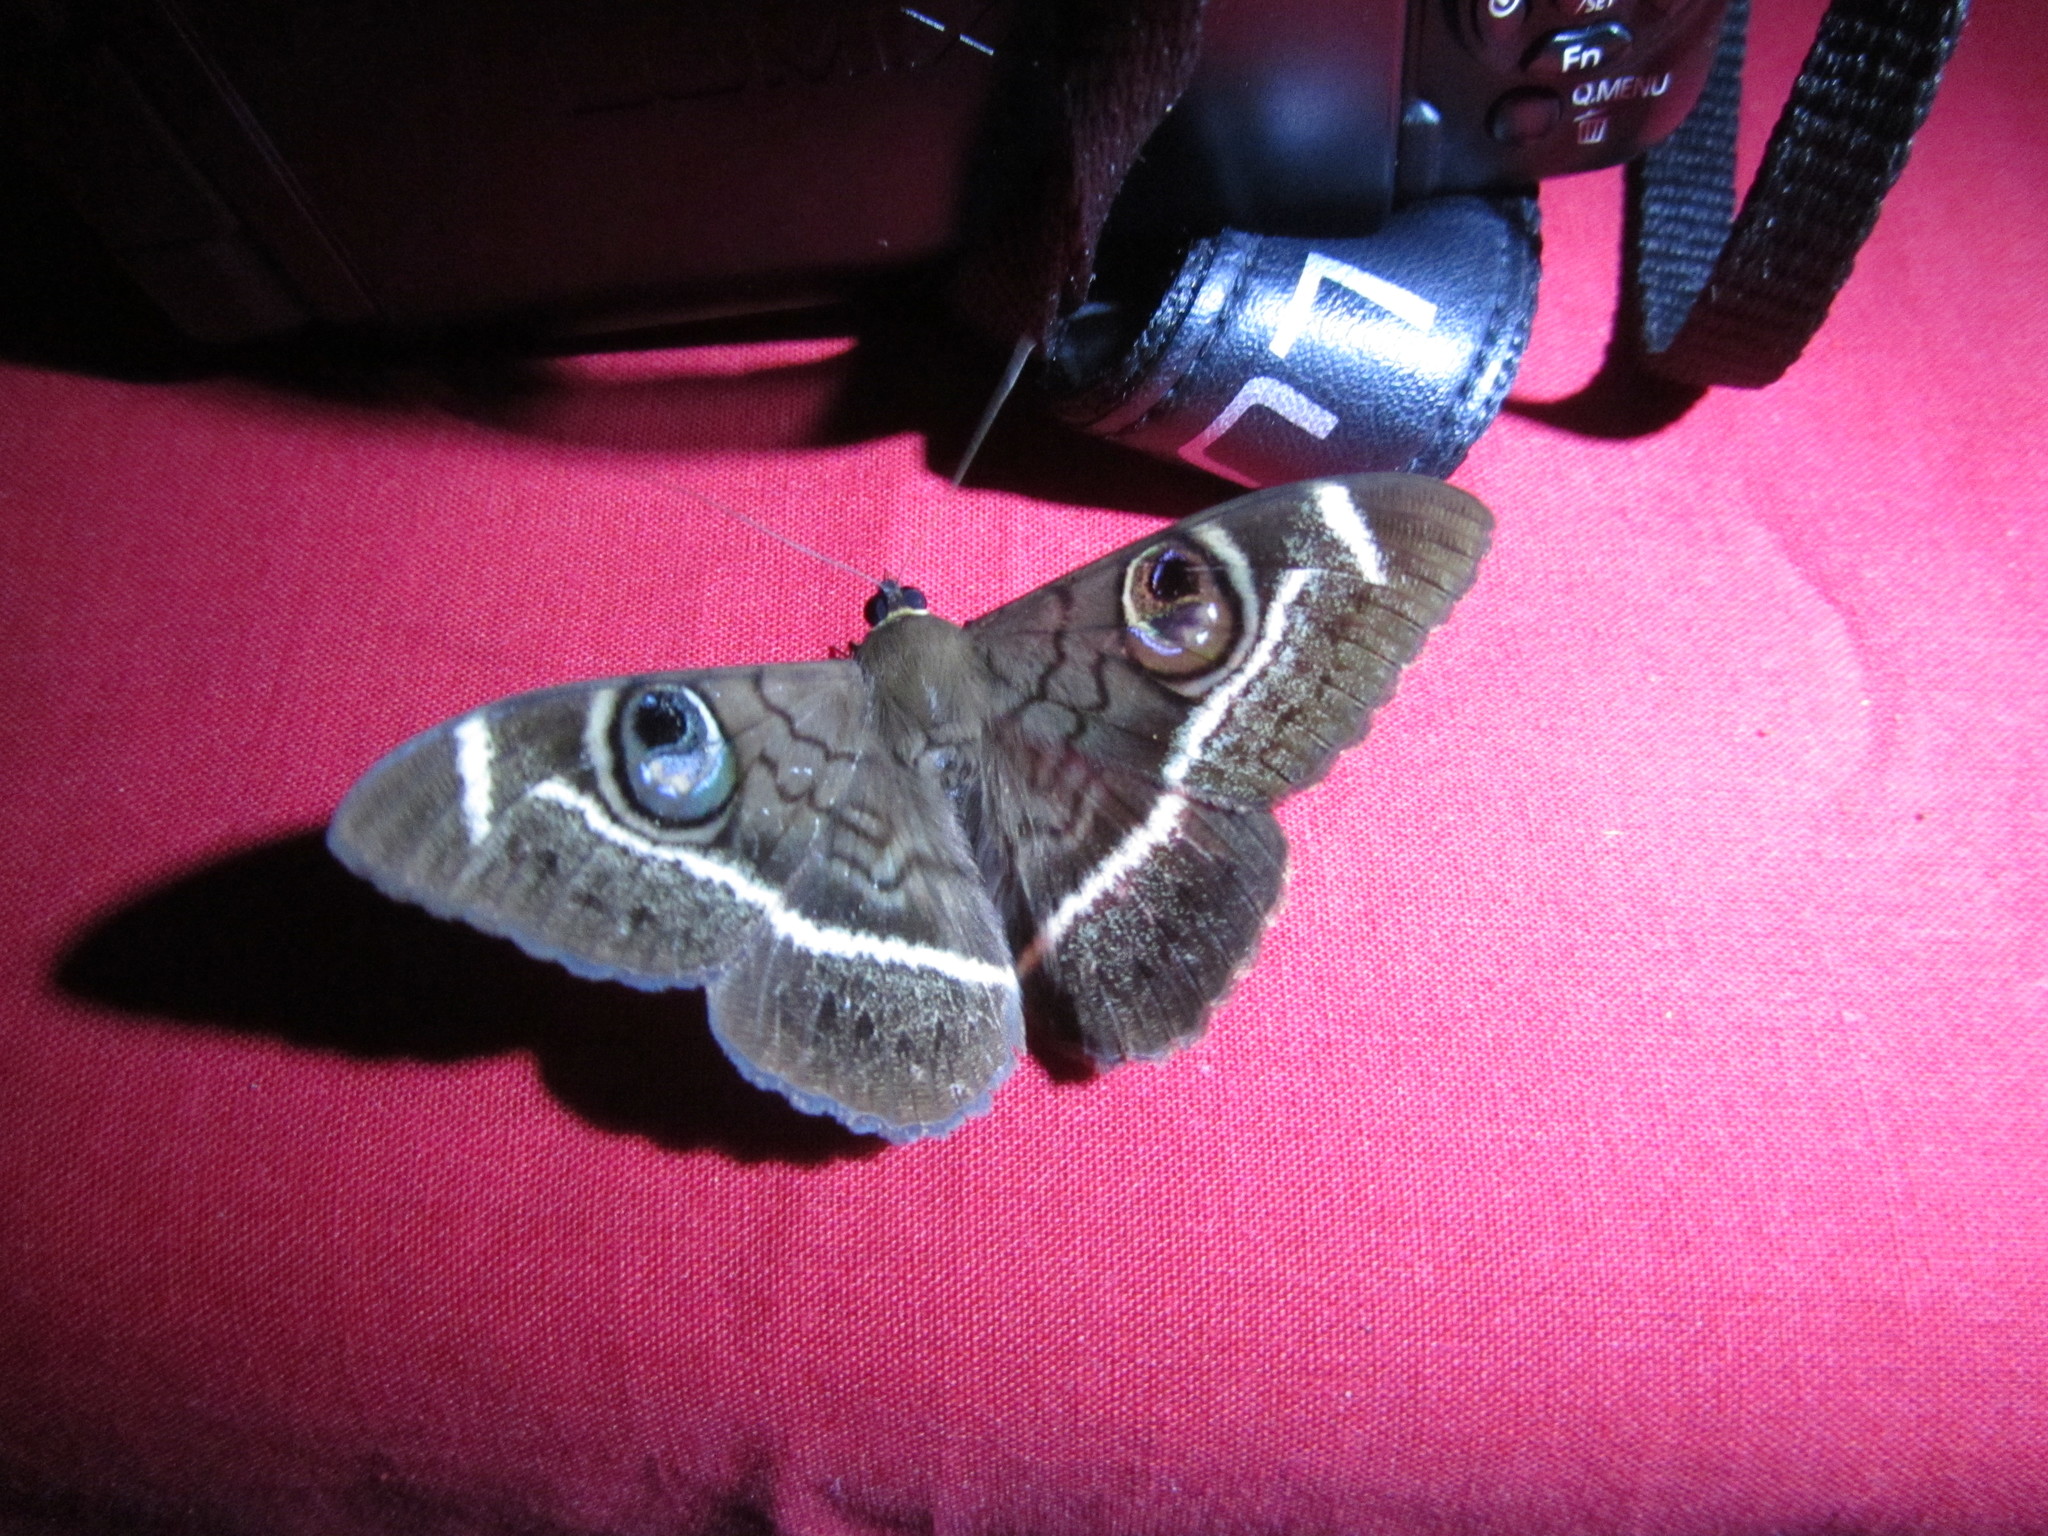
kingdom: Animalia
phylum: Arthropoda
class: Insecta
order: Lepidoptera
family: Erebidae
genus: Cyligramma
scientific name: Cyligramma latona
